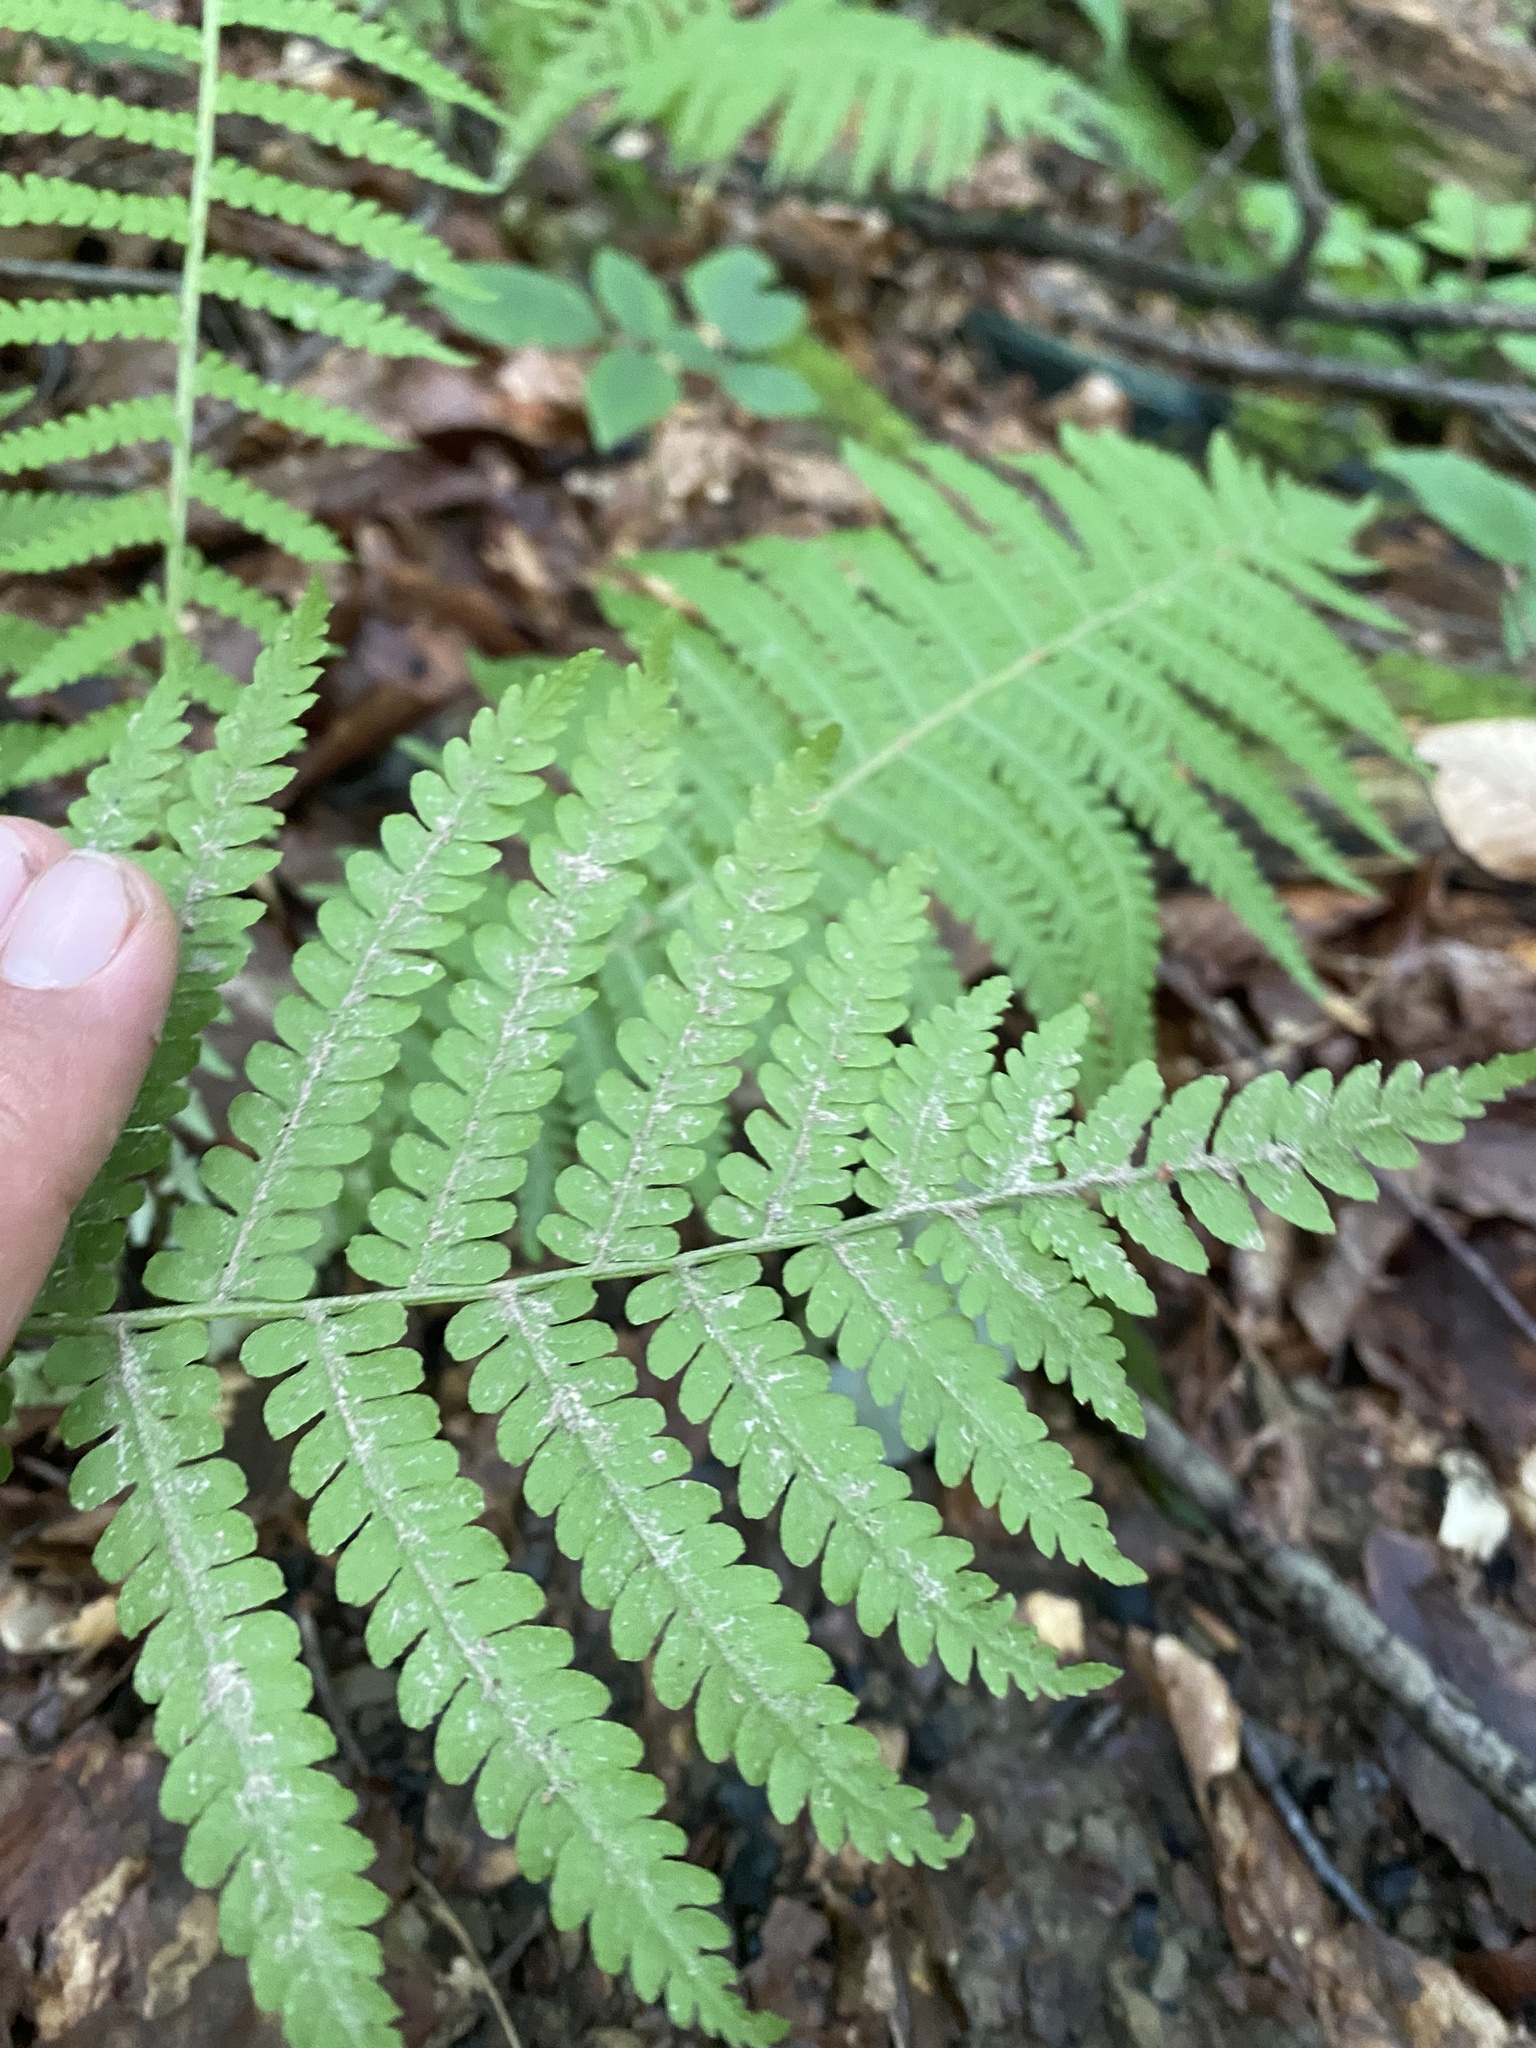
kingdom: Plantae
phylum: Tracheophyta
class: Polypodiopsida
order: Polypodiales
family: Onocleaceae
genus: Matteuccia
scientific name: Matteuccia struthiopteris
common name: Ostrich fern
